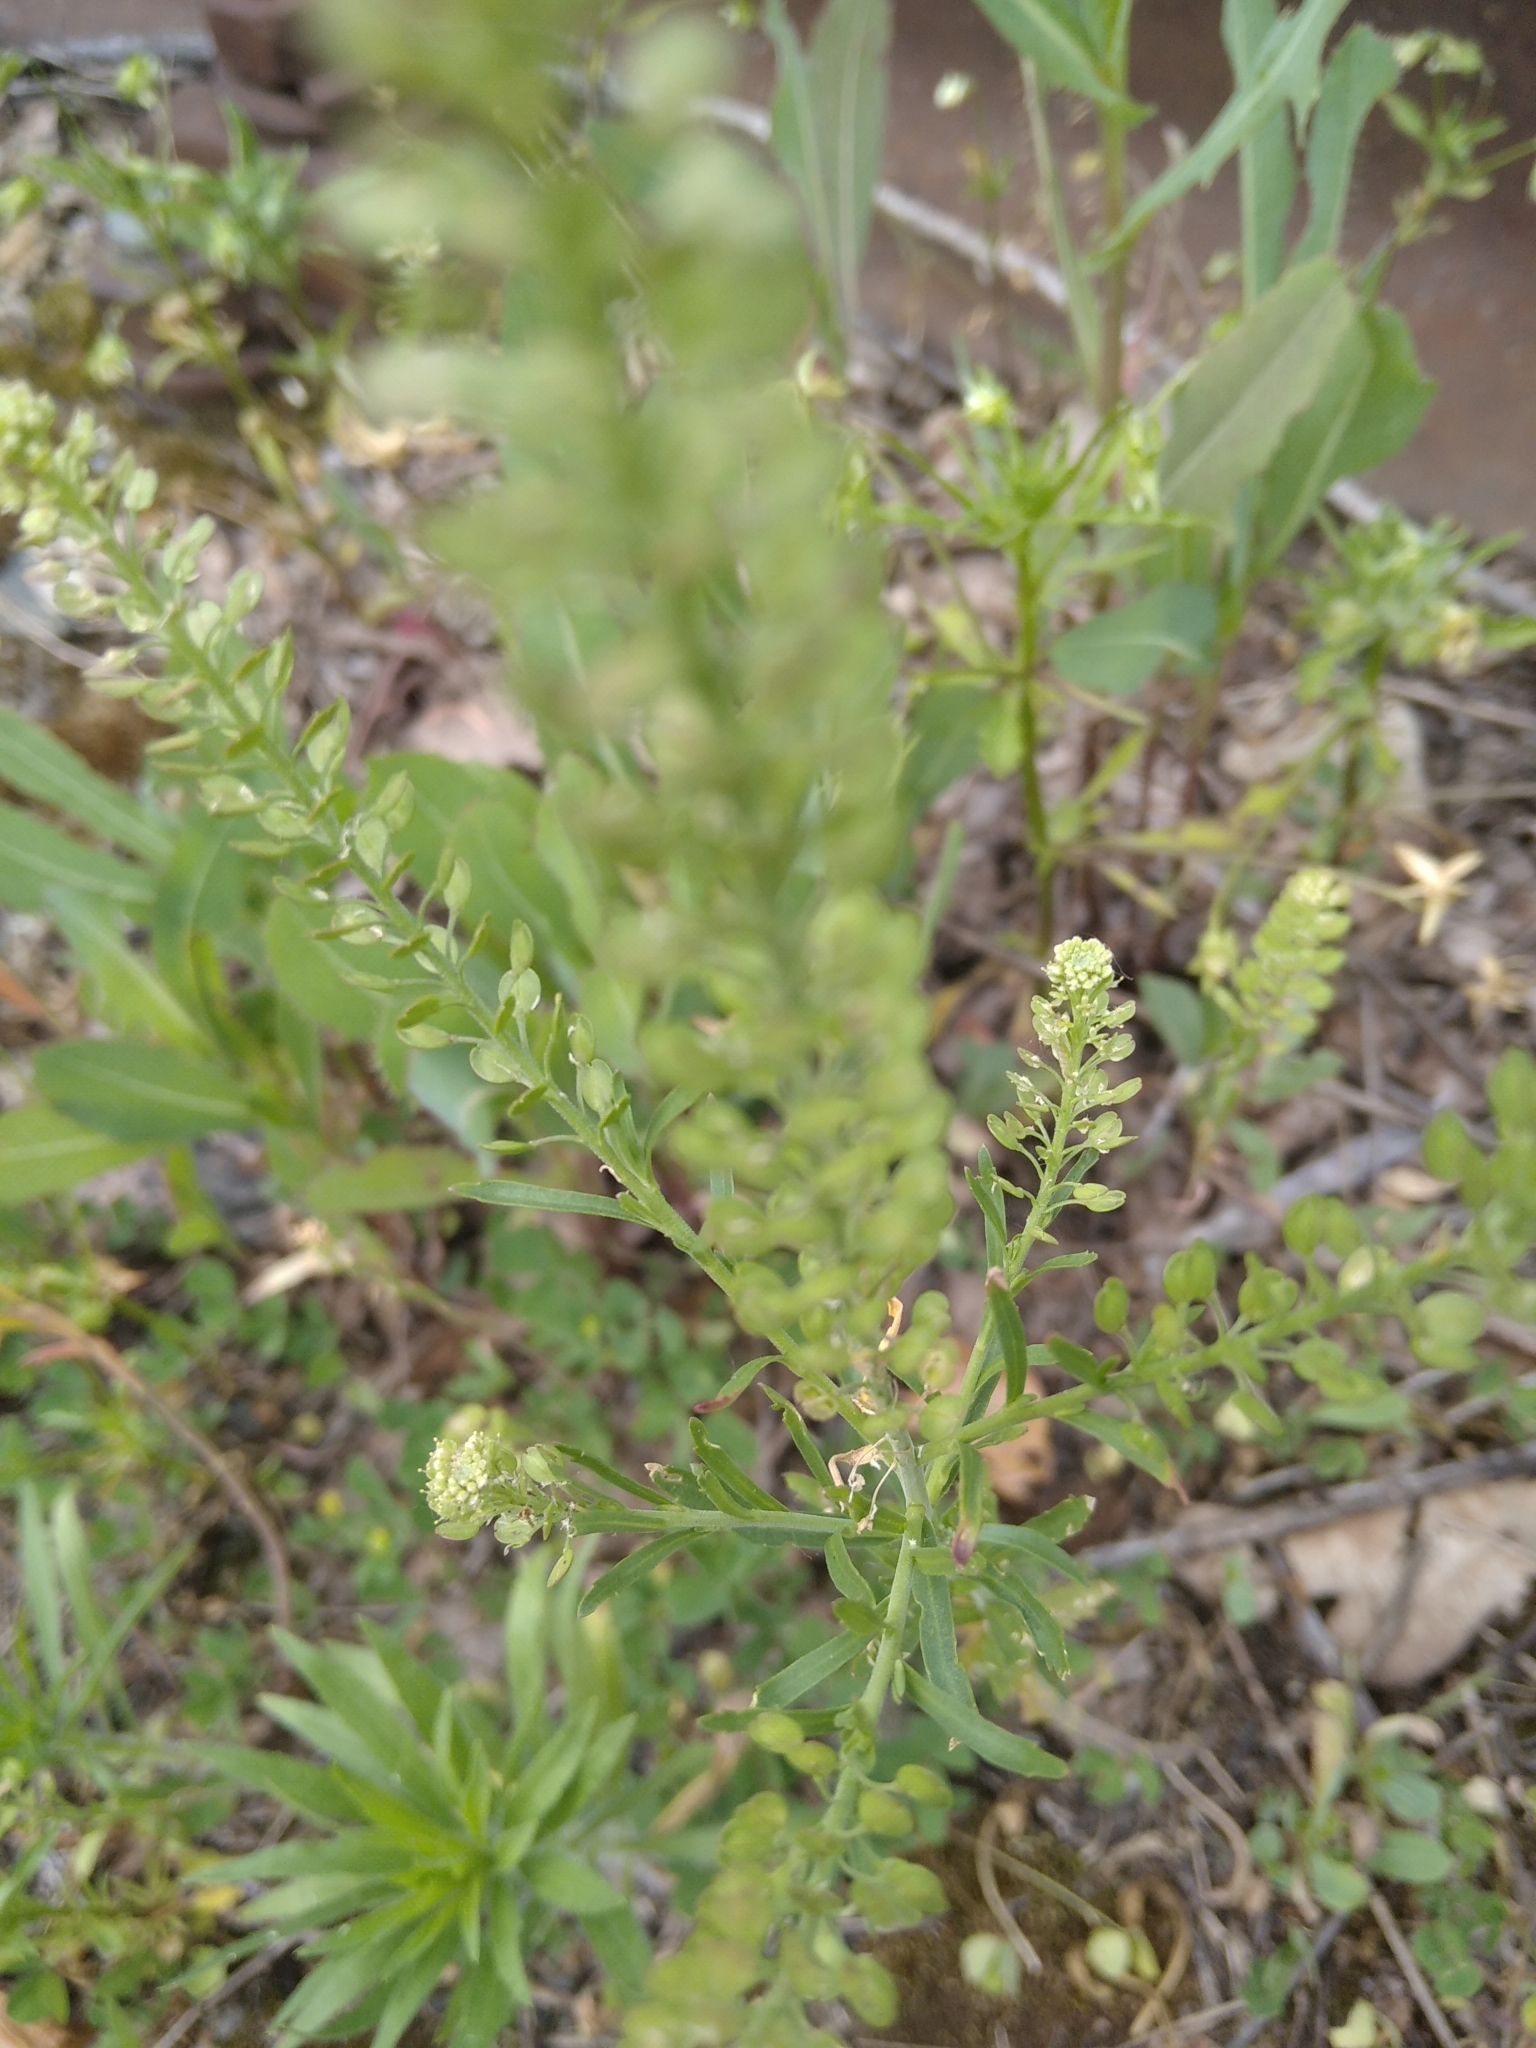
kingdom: Plantae
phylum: Tracheophyta
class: Magnoliopsida
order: Brassicales
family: Brassicaceae
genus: Lepidium
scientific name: Lepidium densiflorum
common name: Miner's pepperwort
